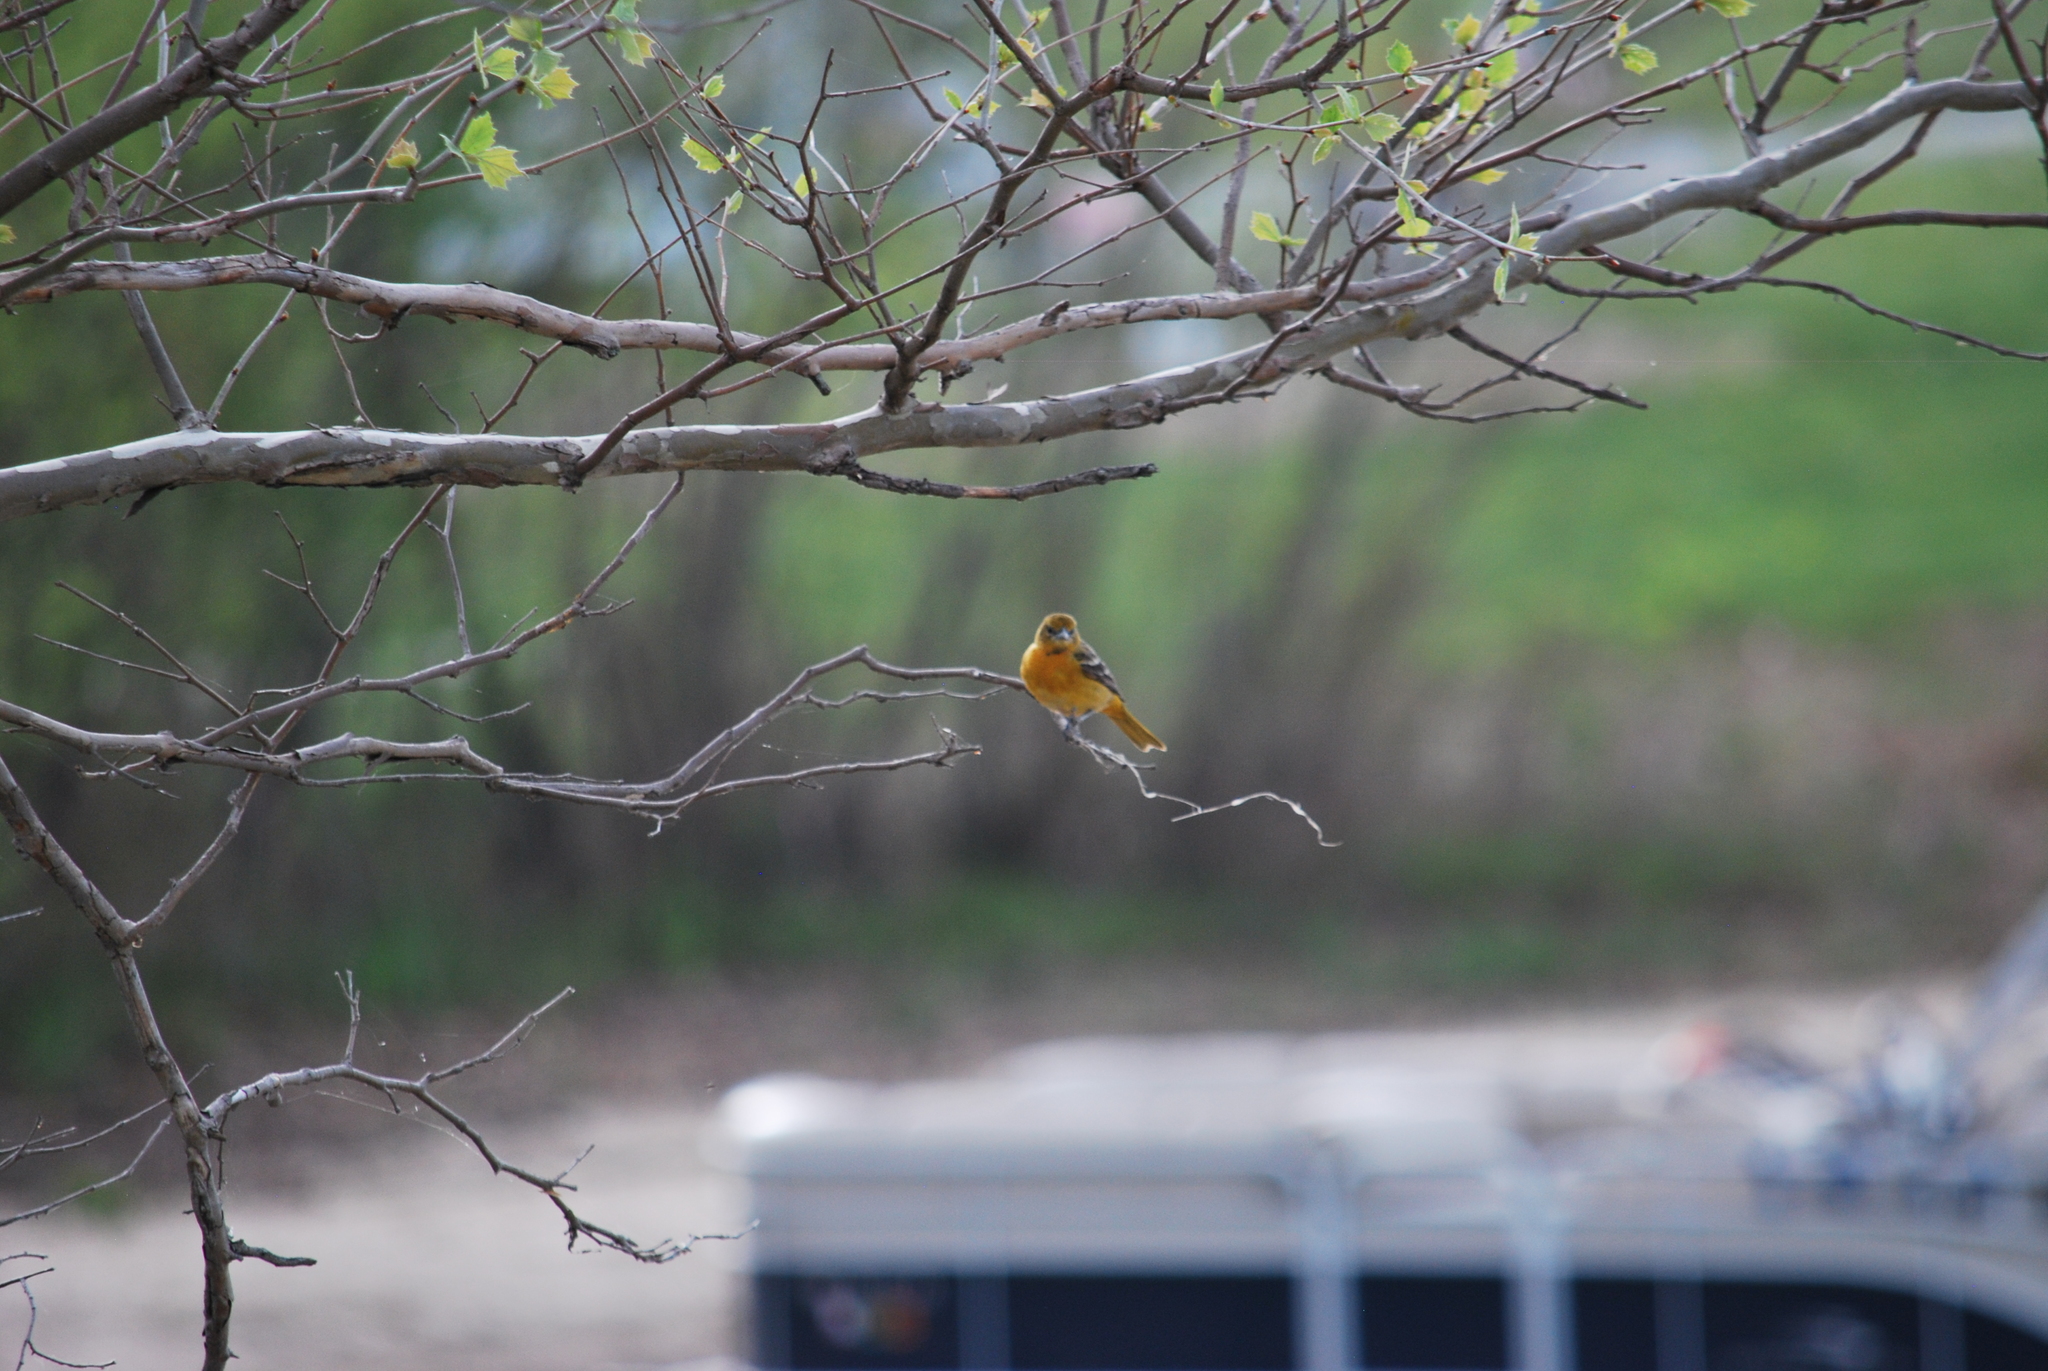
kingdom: Animalia
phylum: Chordata
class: Aves
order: Passeriformes
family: Icteridae
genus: Icterus
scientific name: Icterus galbula
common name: Baltimore oriole
